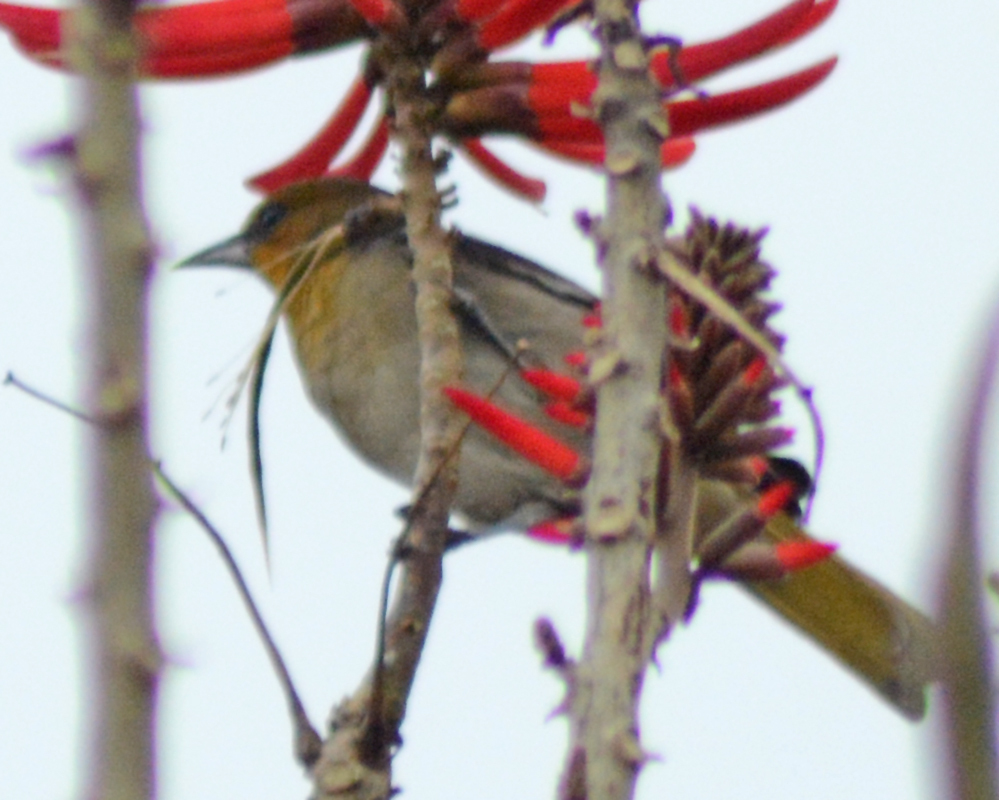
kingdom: Animalia
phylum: Chordata
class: Aves
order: Passeriformes
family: Icteridae
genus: Icterus
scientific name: Icterus abeillei
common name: Black-backed oriole
